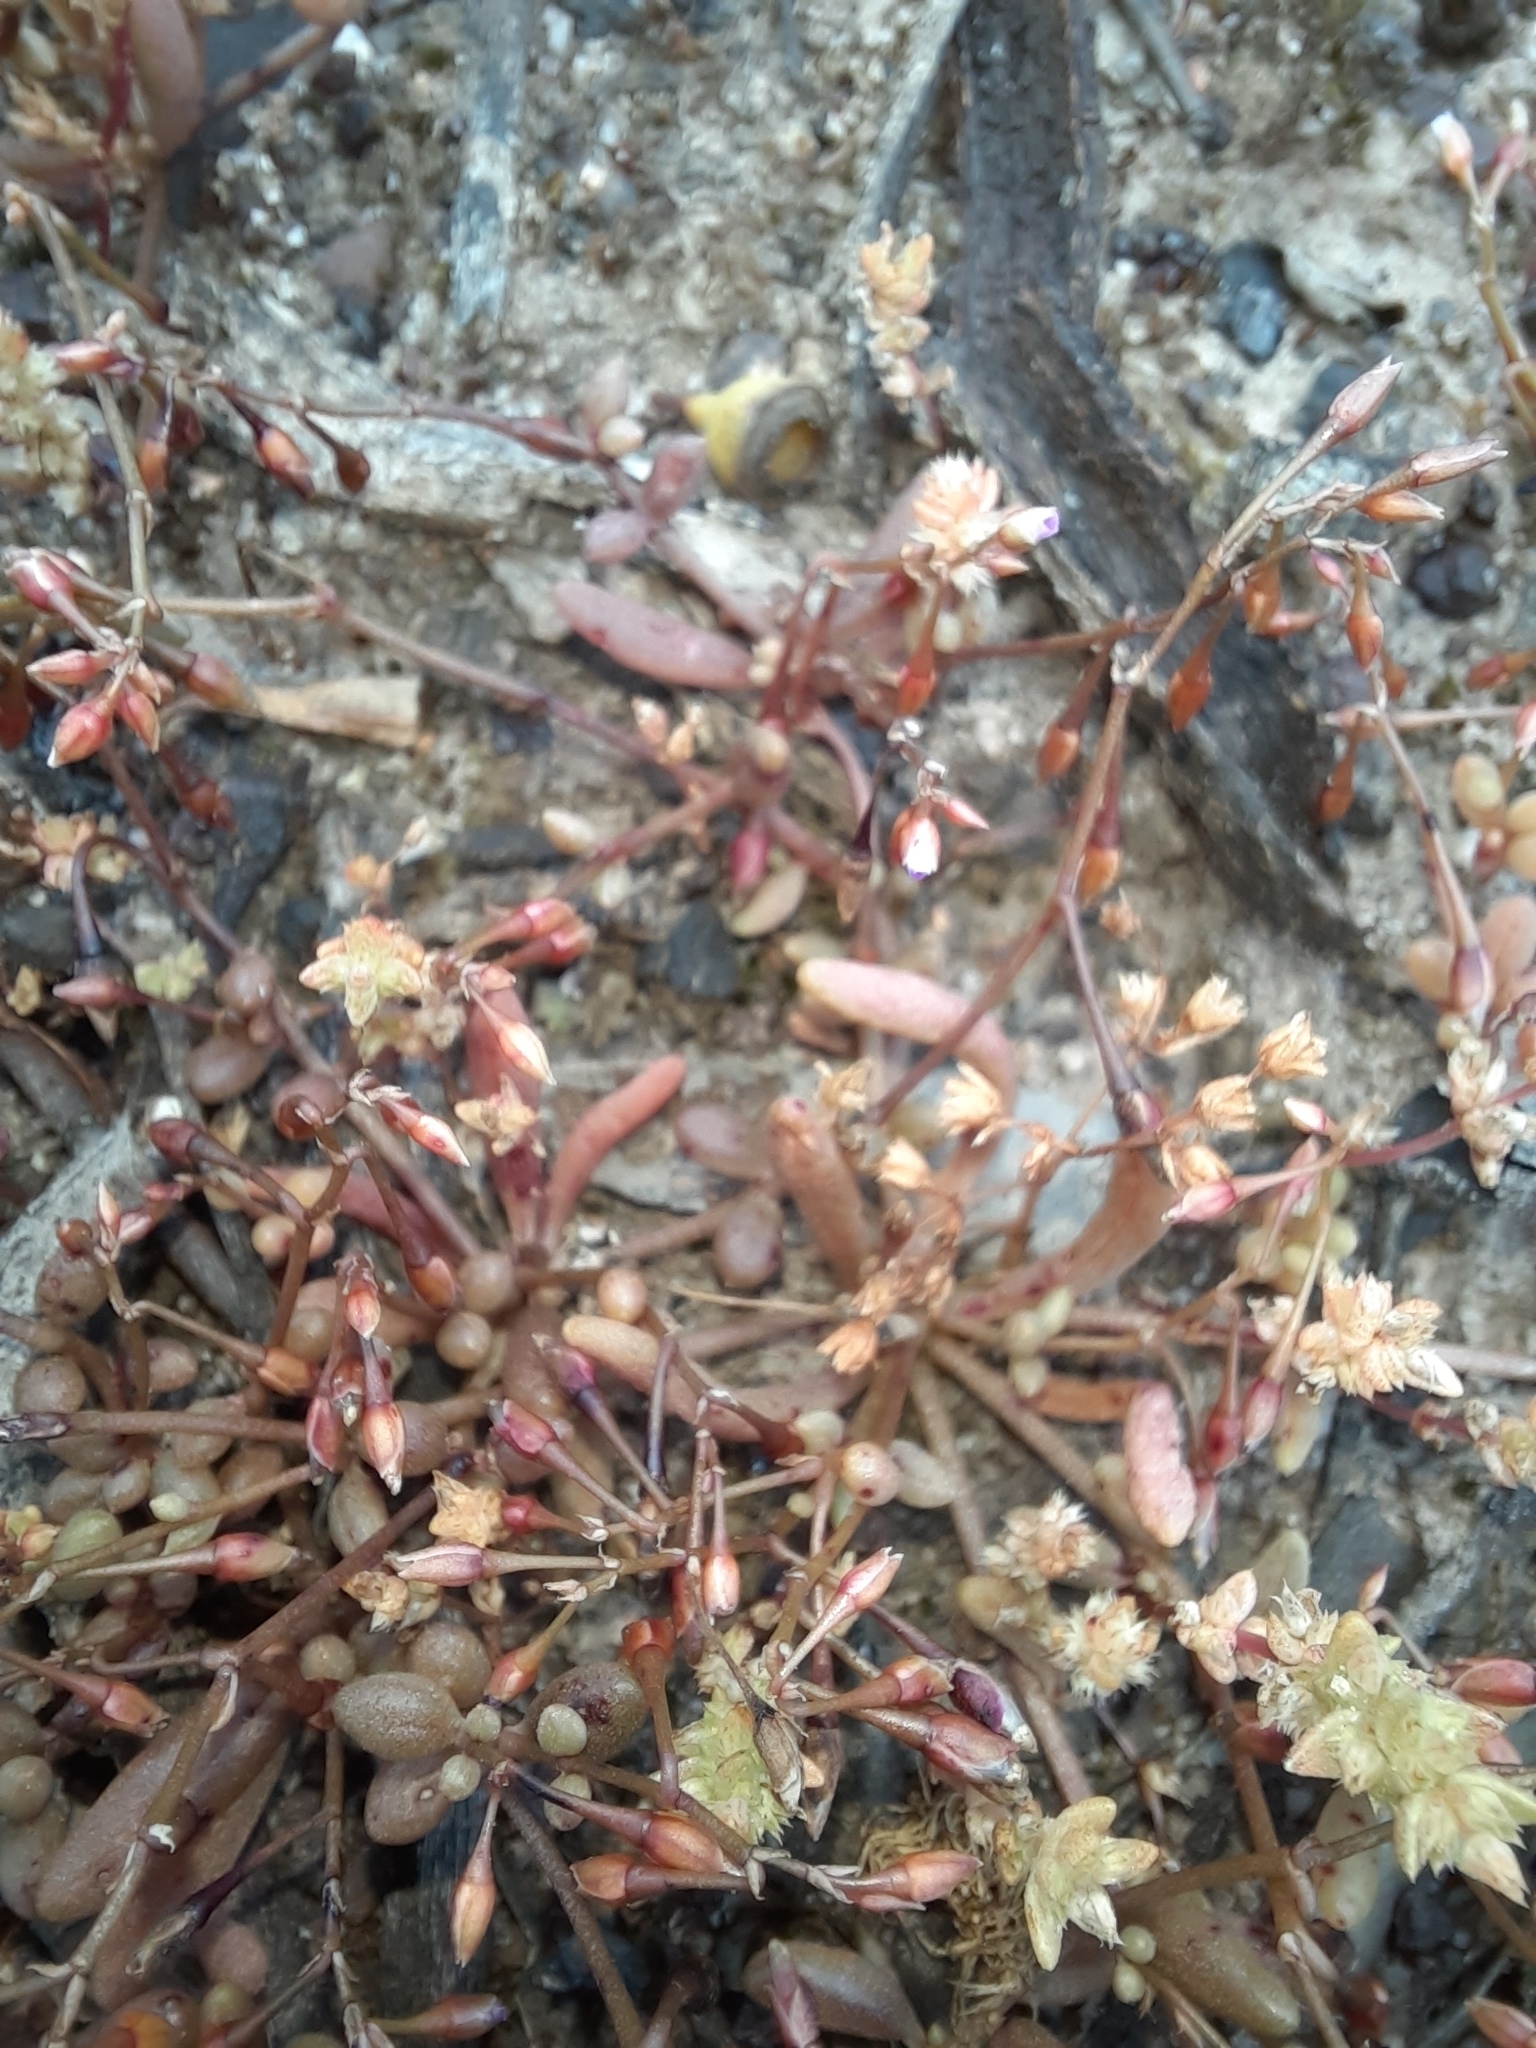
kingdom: Plantae
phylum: Tracheophyta
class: Magnoliopsida
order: Caryophyllales
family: Montiaceae
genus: Rumicastrum
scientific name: Rumicastrum calyptratum
